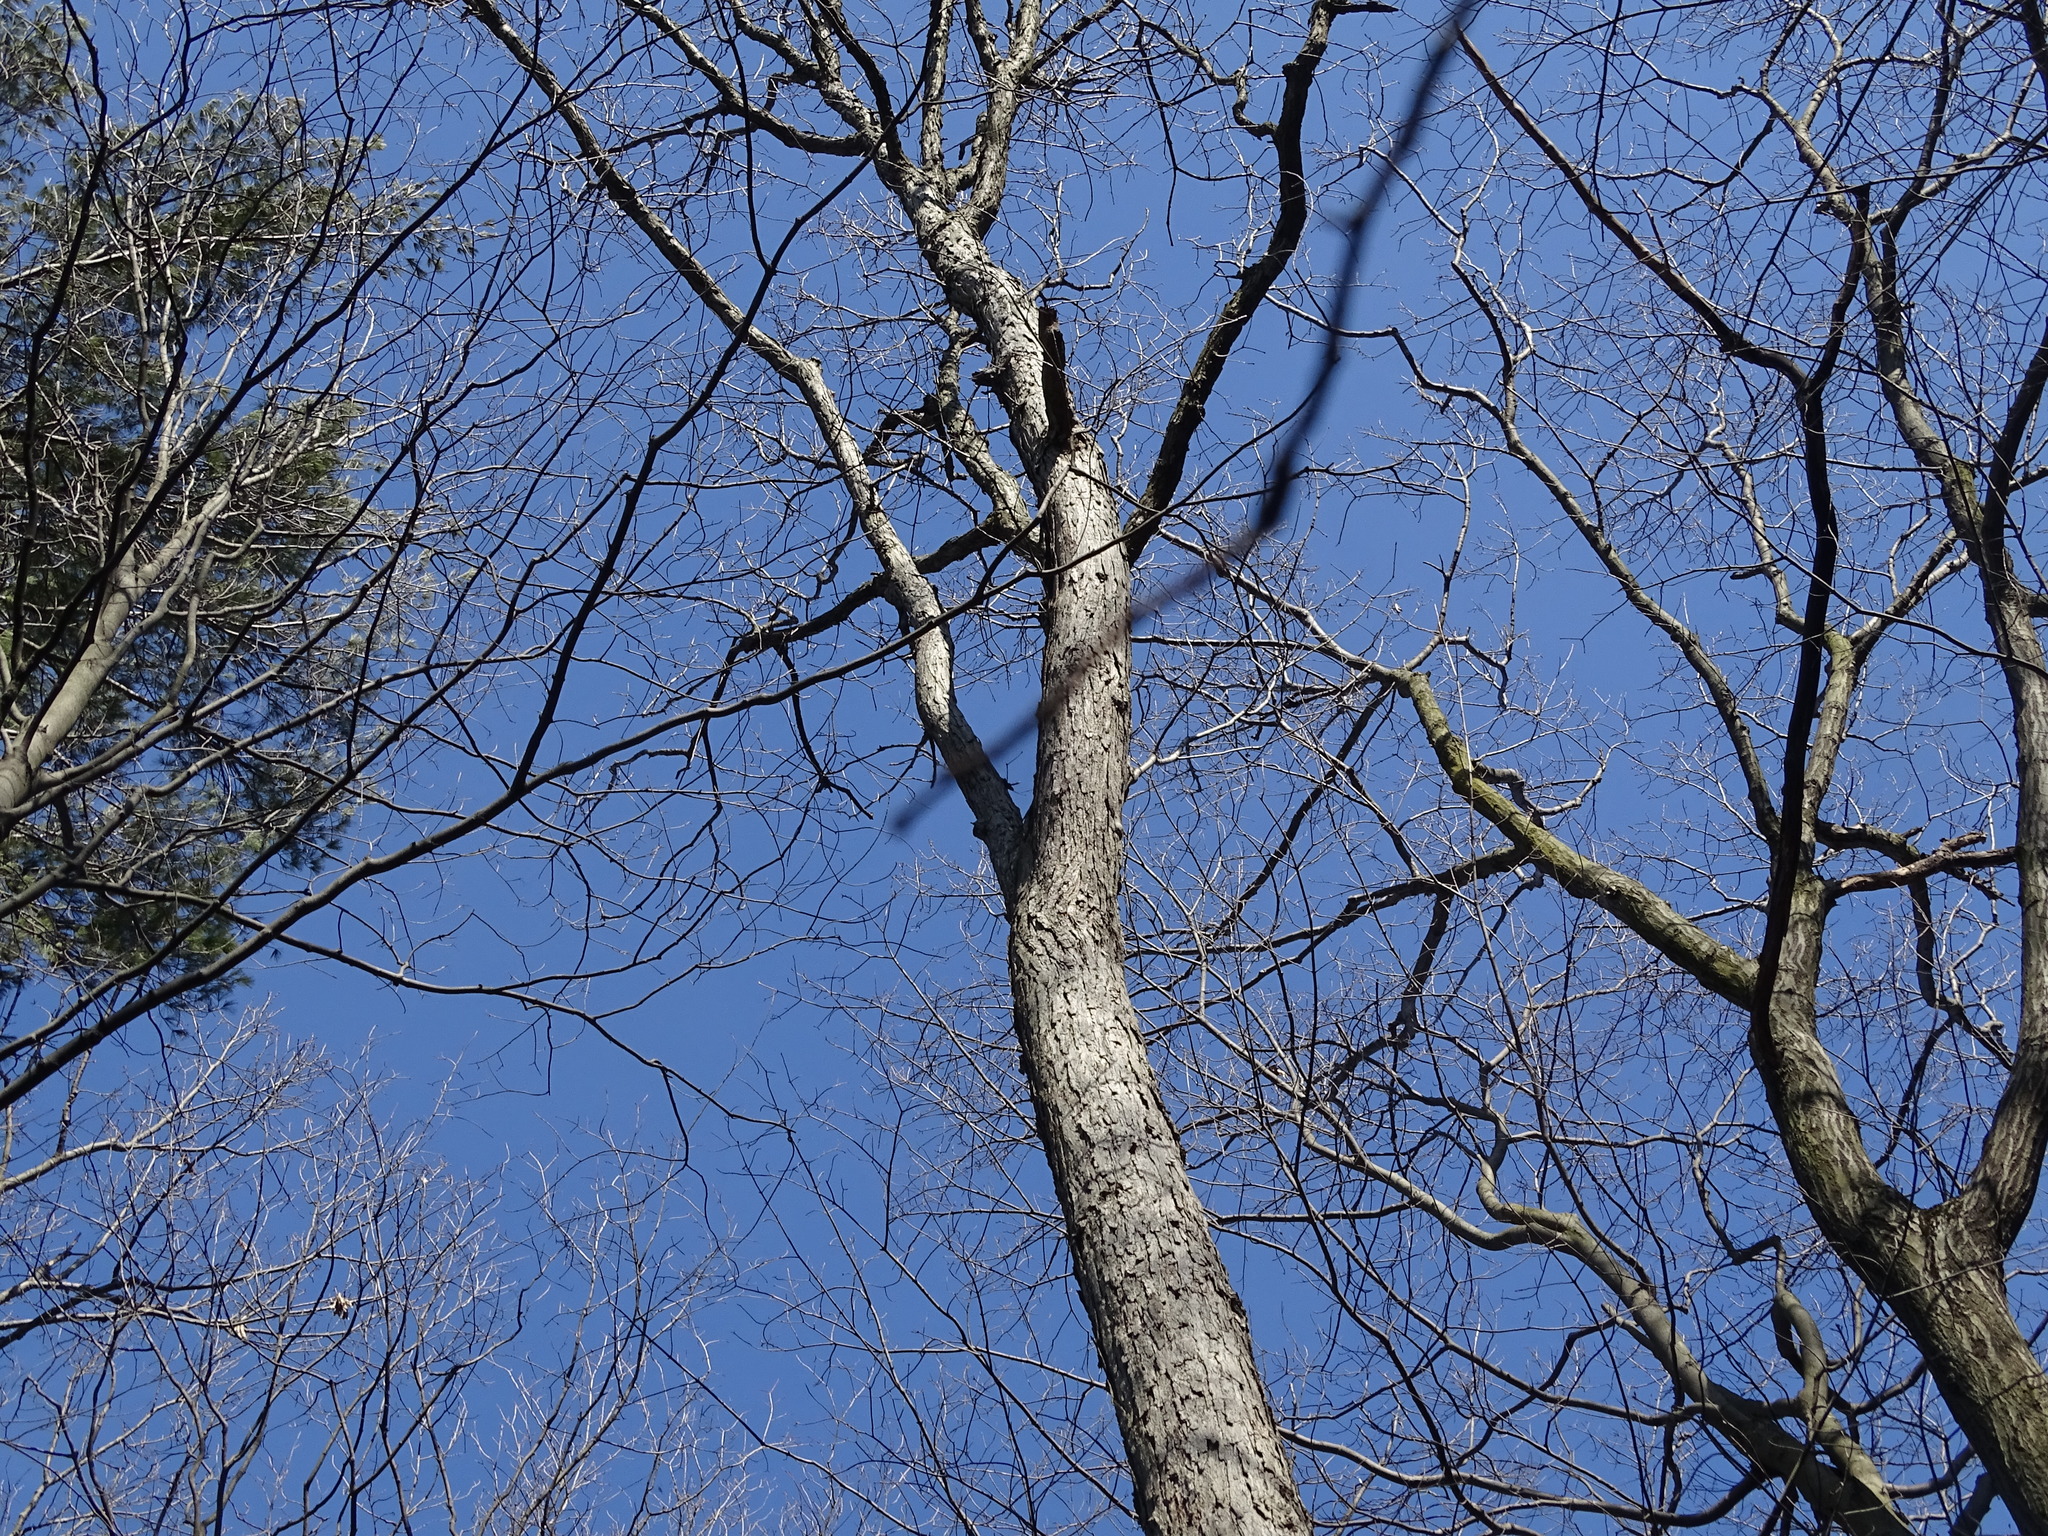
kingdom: Plantae
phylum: Tracheophyta
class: Magnoliopsida
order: Fagales
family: Fagaceae
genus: Quercus
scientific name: Quercus alba
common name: White oak
